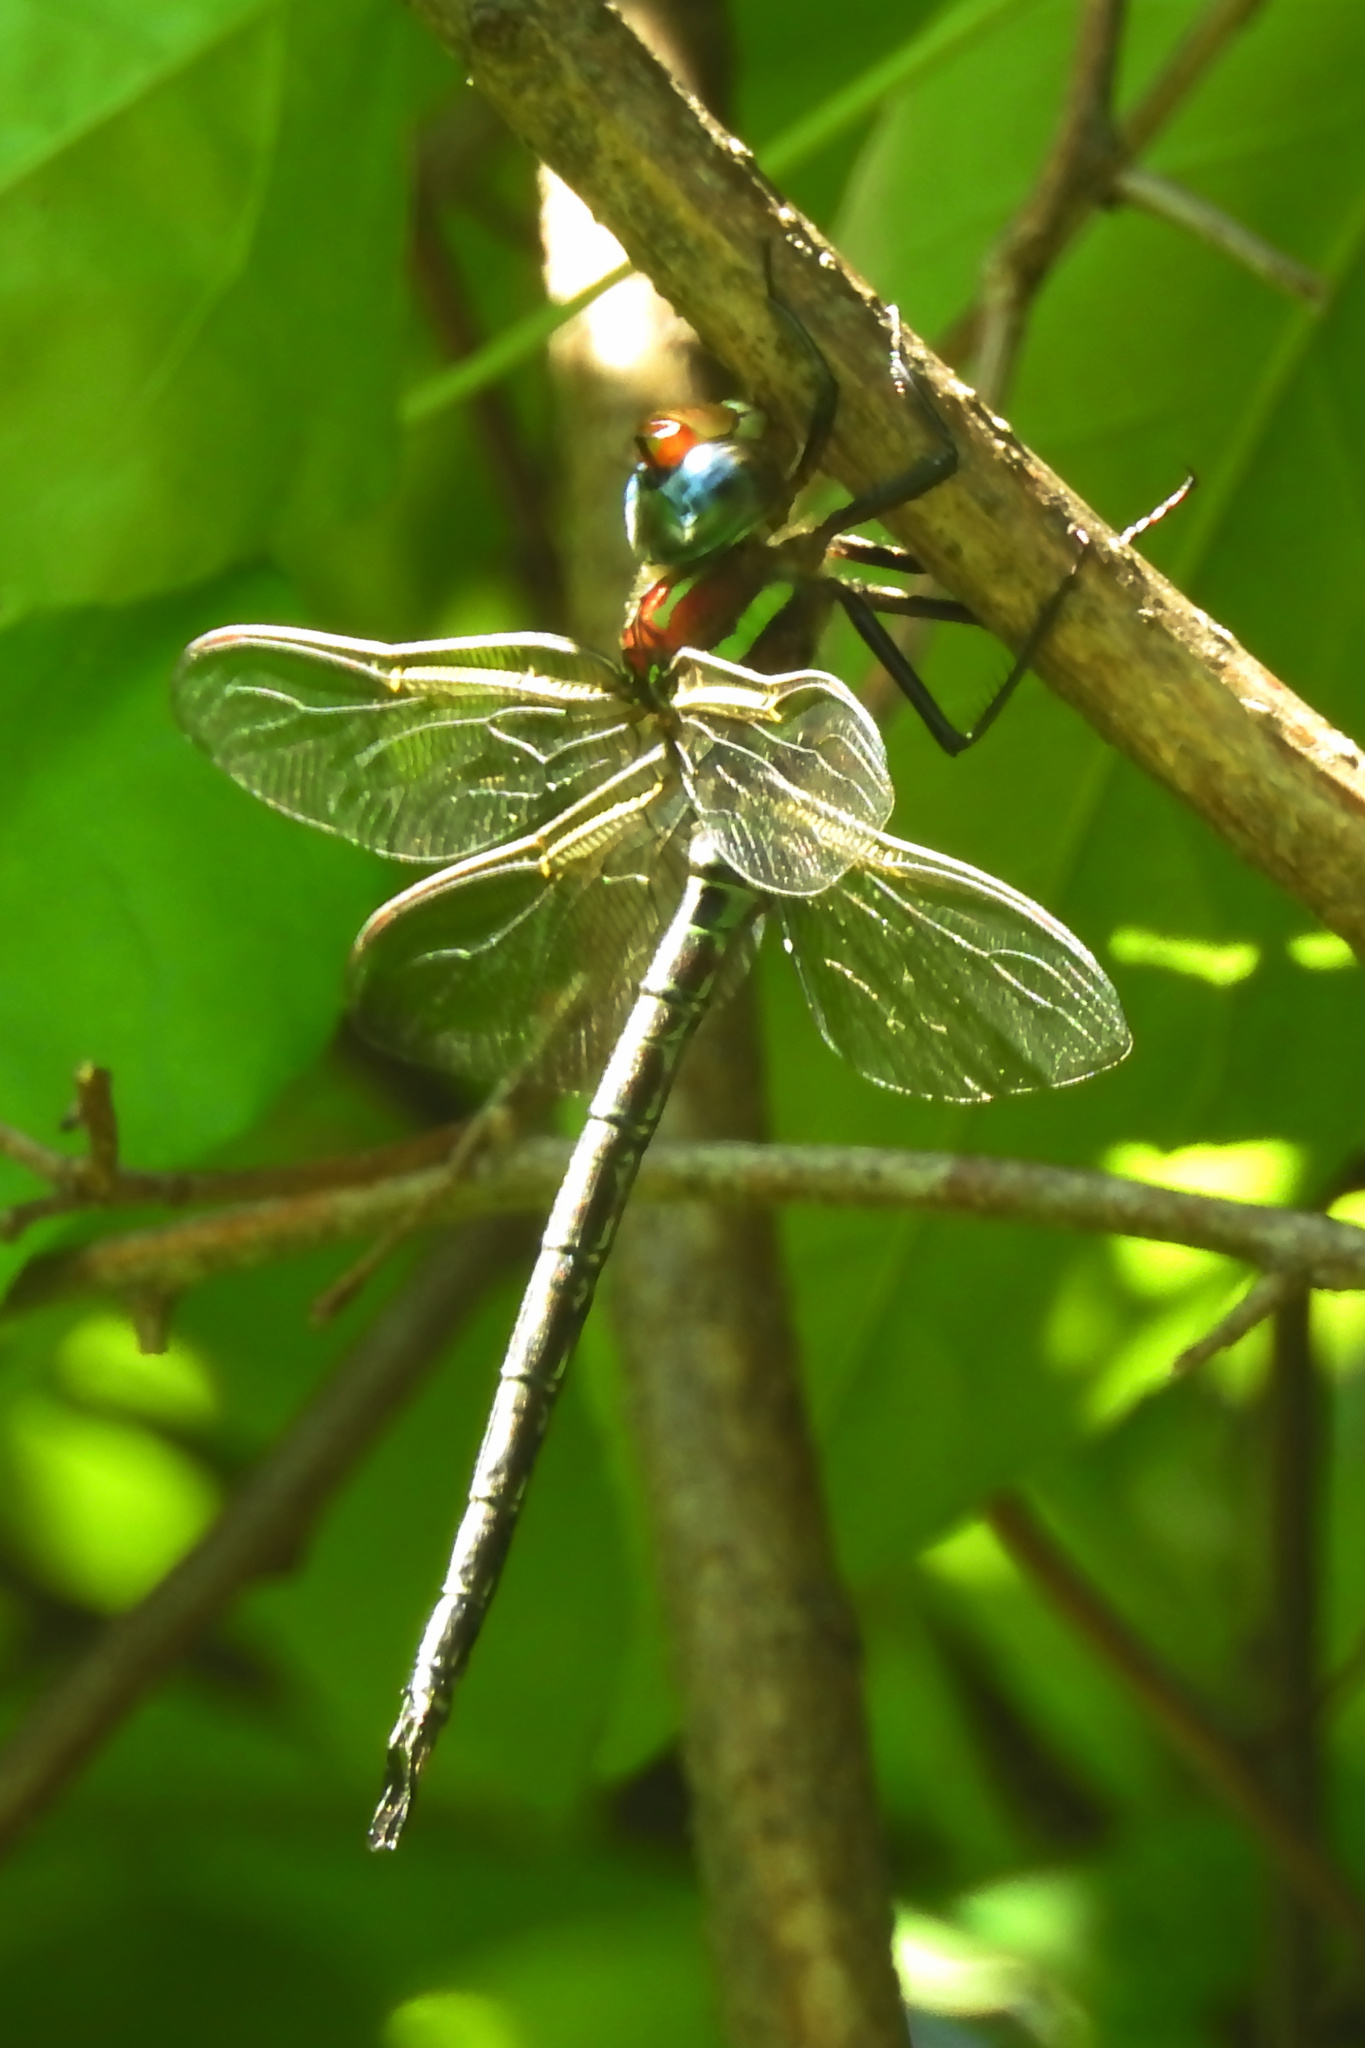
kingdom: Animalia
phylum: Arthropoda
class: Insecta
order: Odonata
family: Aeshnidae
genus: Epiaeschna
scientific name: Epiaeschna heros
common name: Swamp darner
